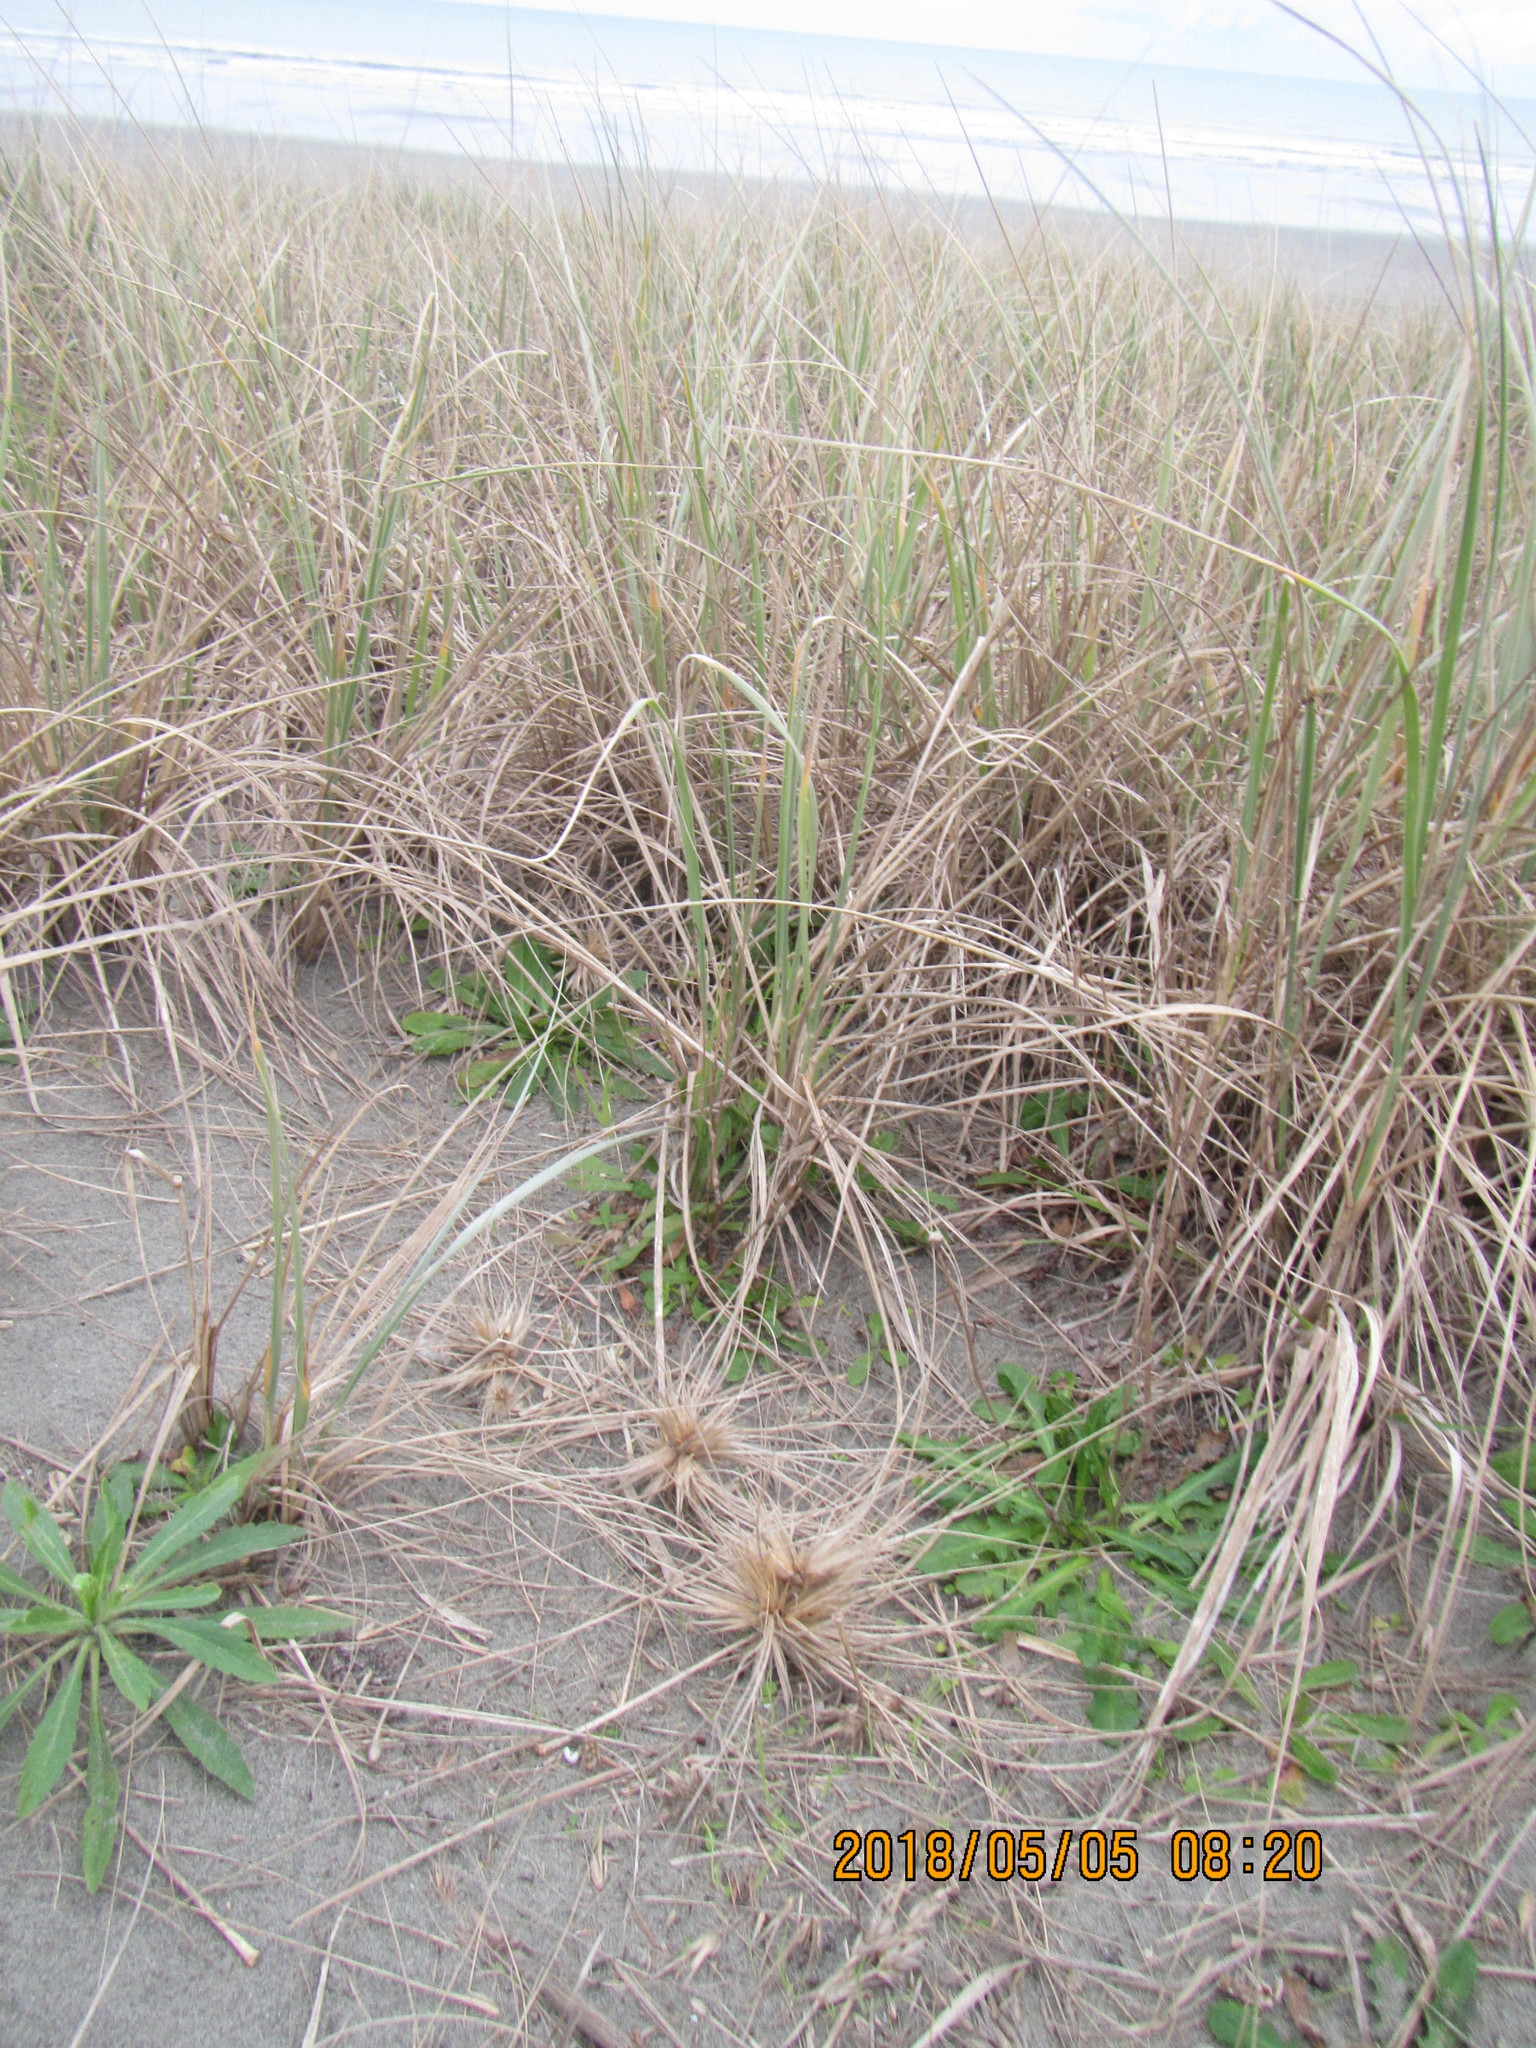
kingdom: Plantae
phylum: Tracheophyta
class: Liliopsida
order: Poales
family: Poaceae
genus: Spinifex
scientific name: Spinifex sericeus
